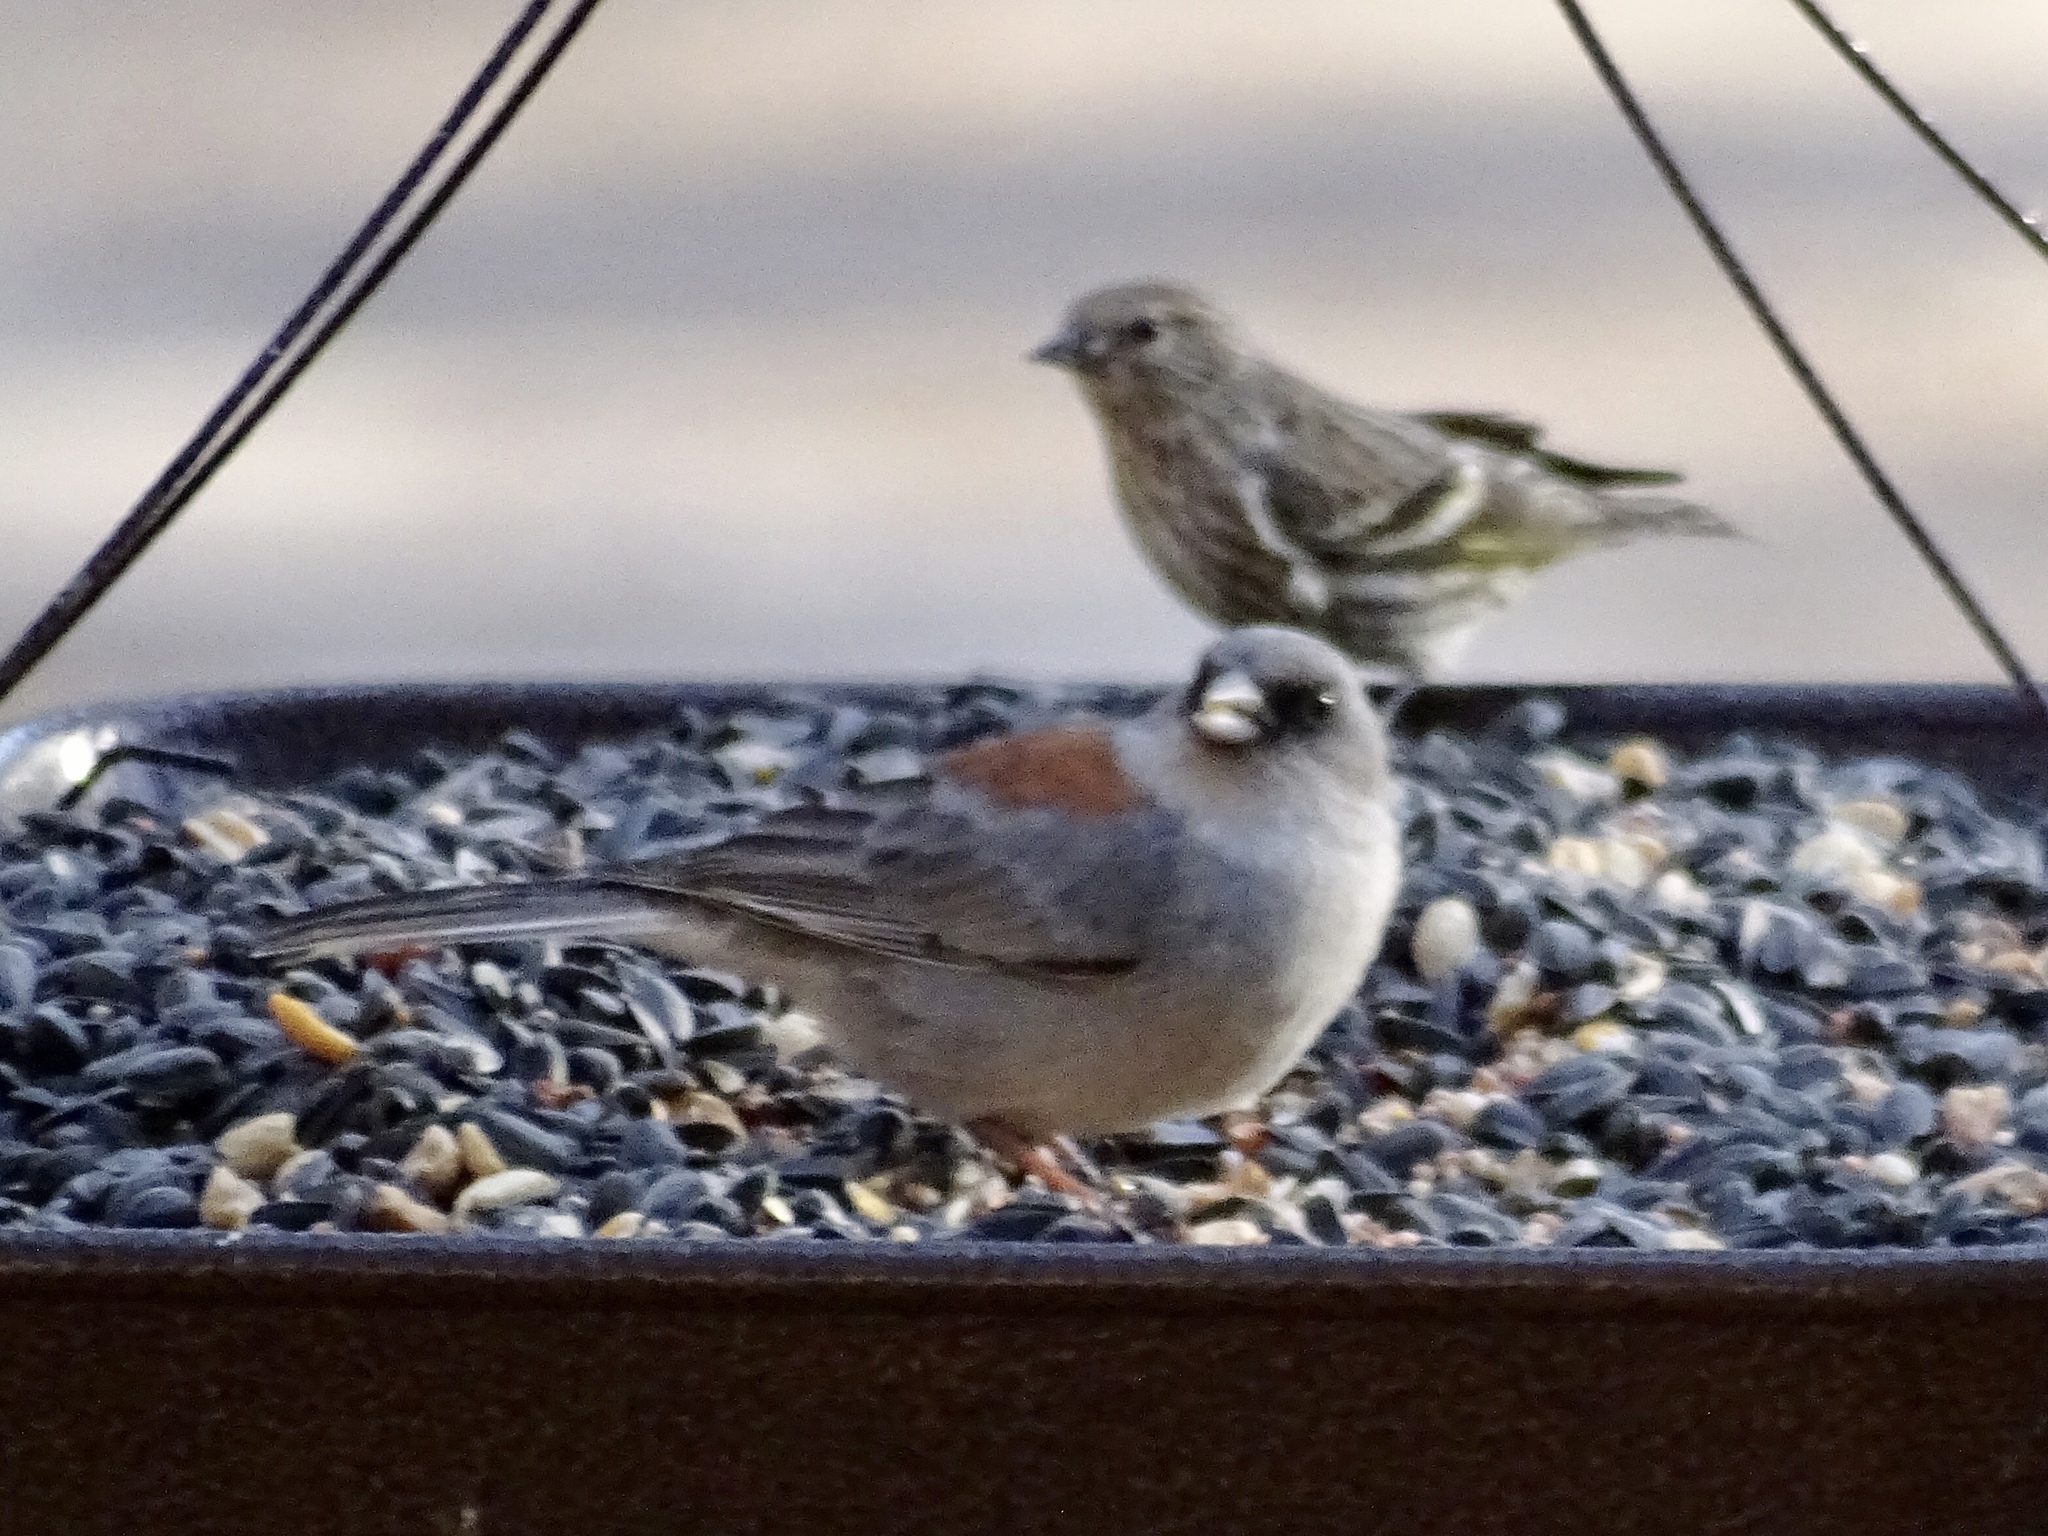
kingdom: Animalia
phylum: Chordata
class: Aves
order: Passeriformes
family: Passerellidae
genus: Junco
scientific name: Junco hyemalis
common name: Dark-eyed junco
